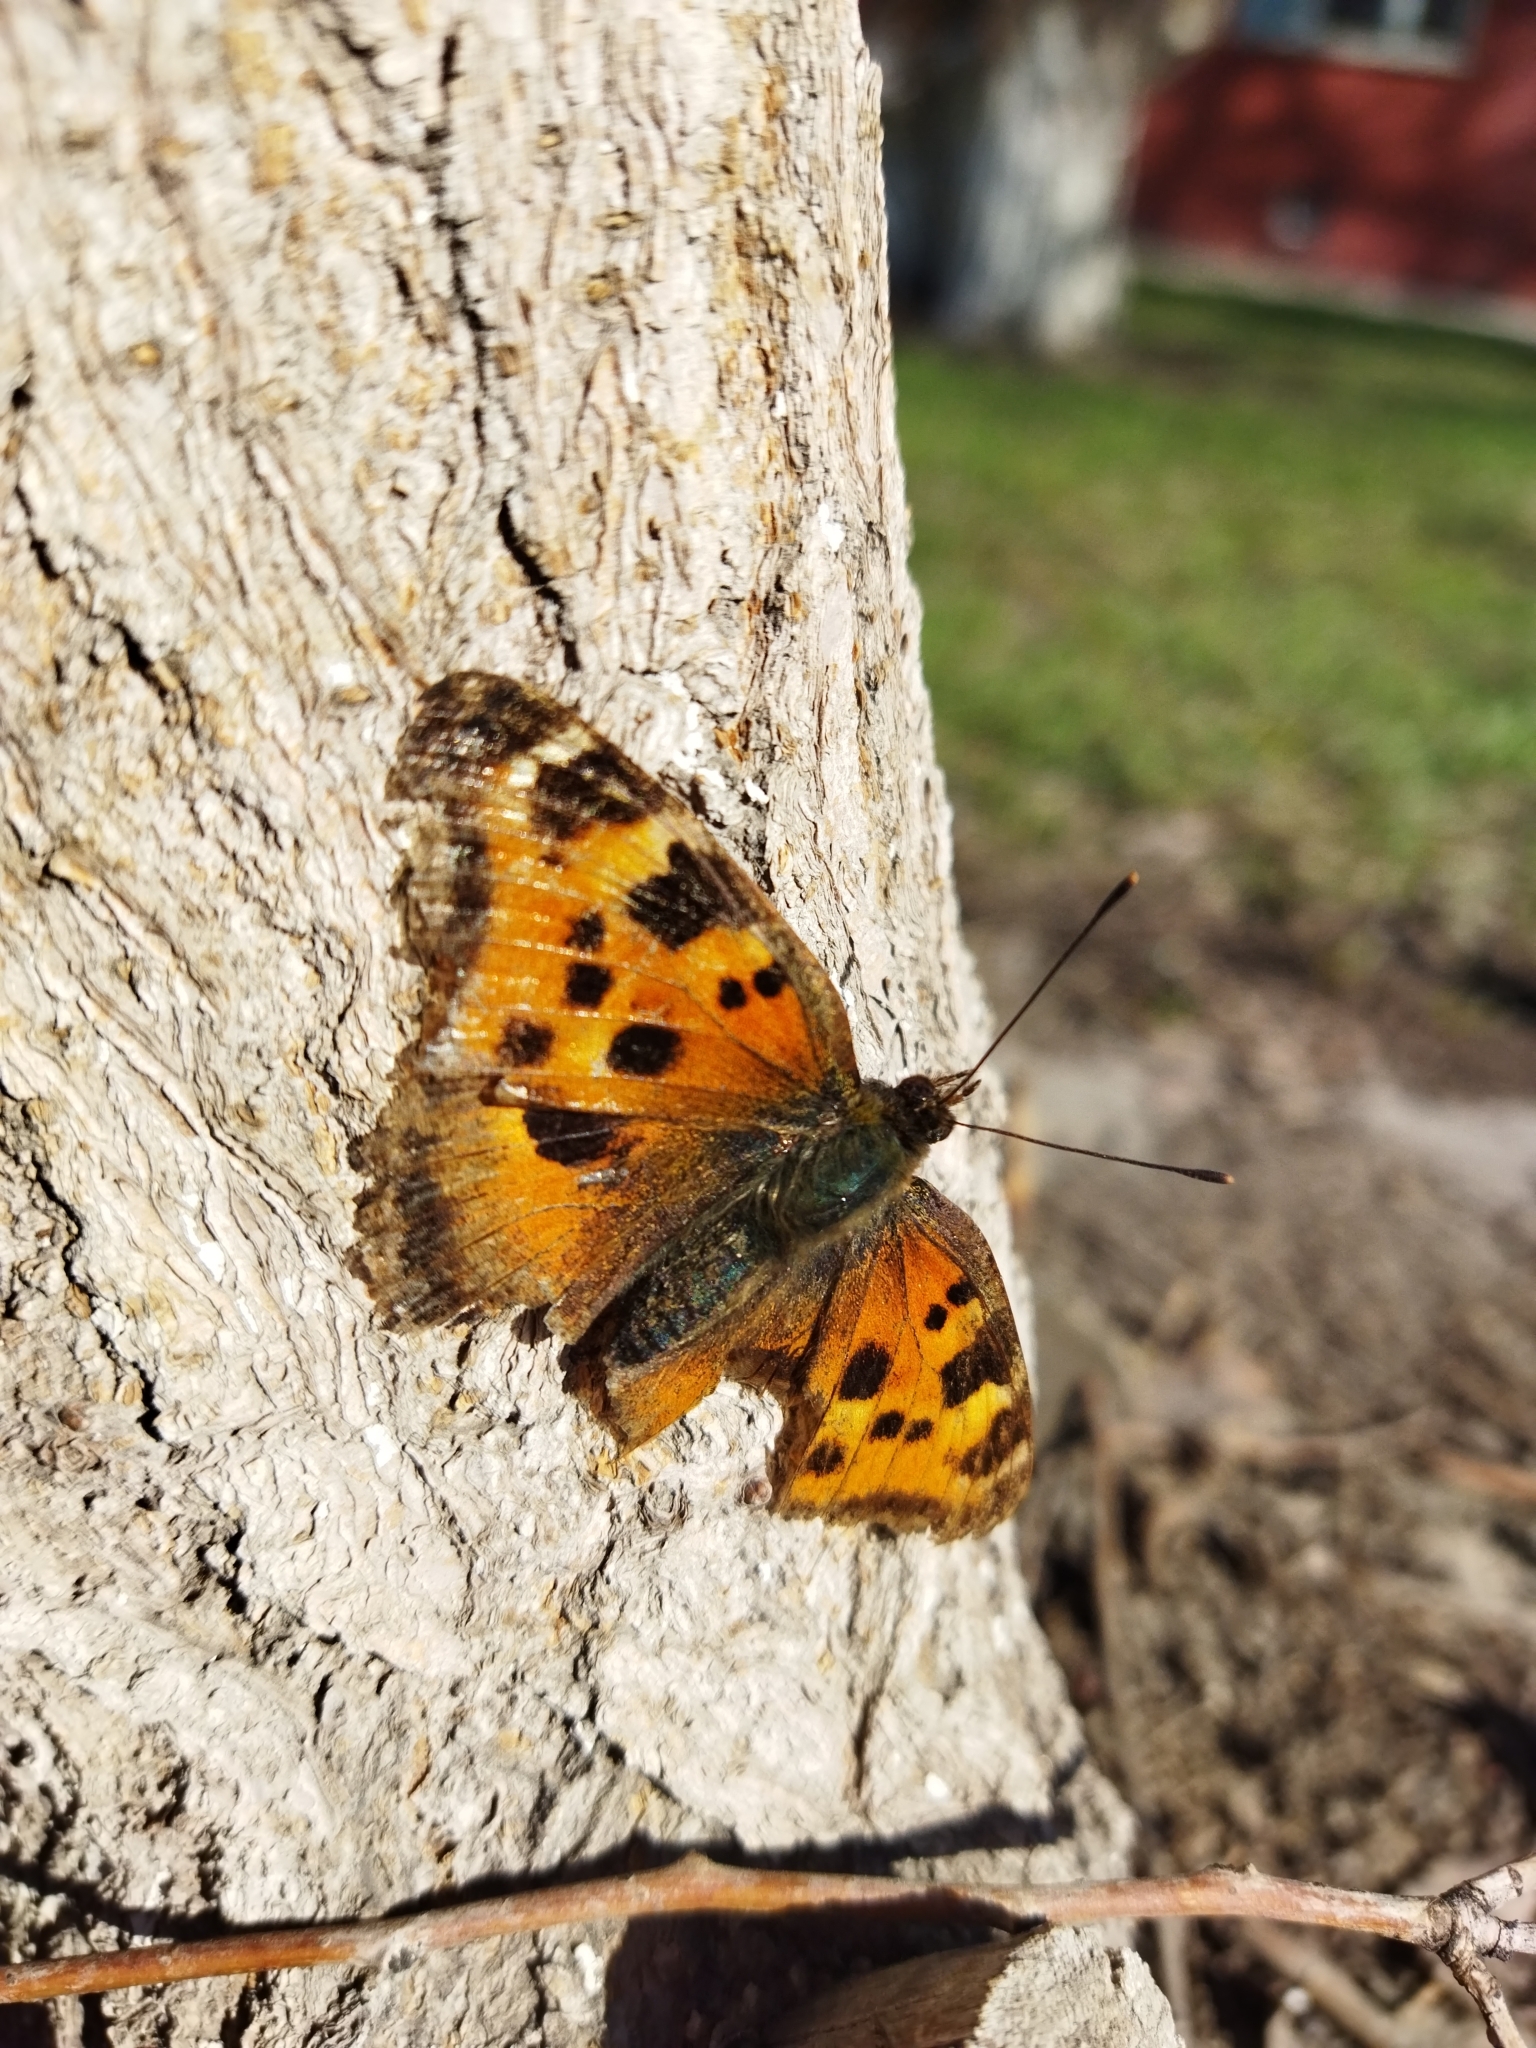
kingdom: Animalia
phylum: Arthropoda
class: Insecta
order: Lepidoptera
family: Nymphalidae
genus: Nymphalis
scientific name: Nymphalis xanthomelas
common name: Scarce tortoiseshell
